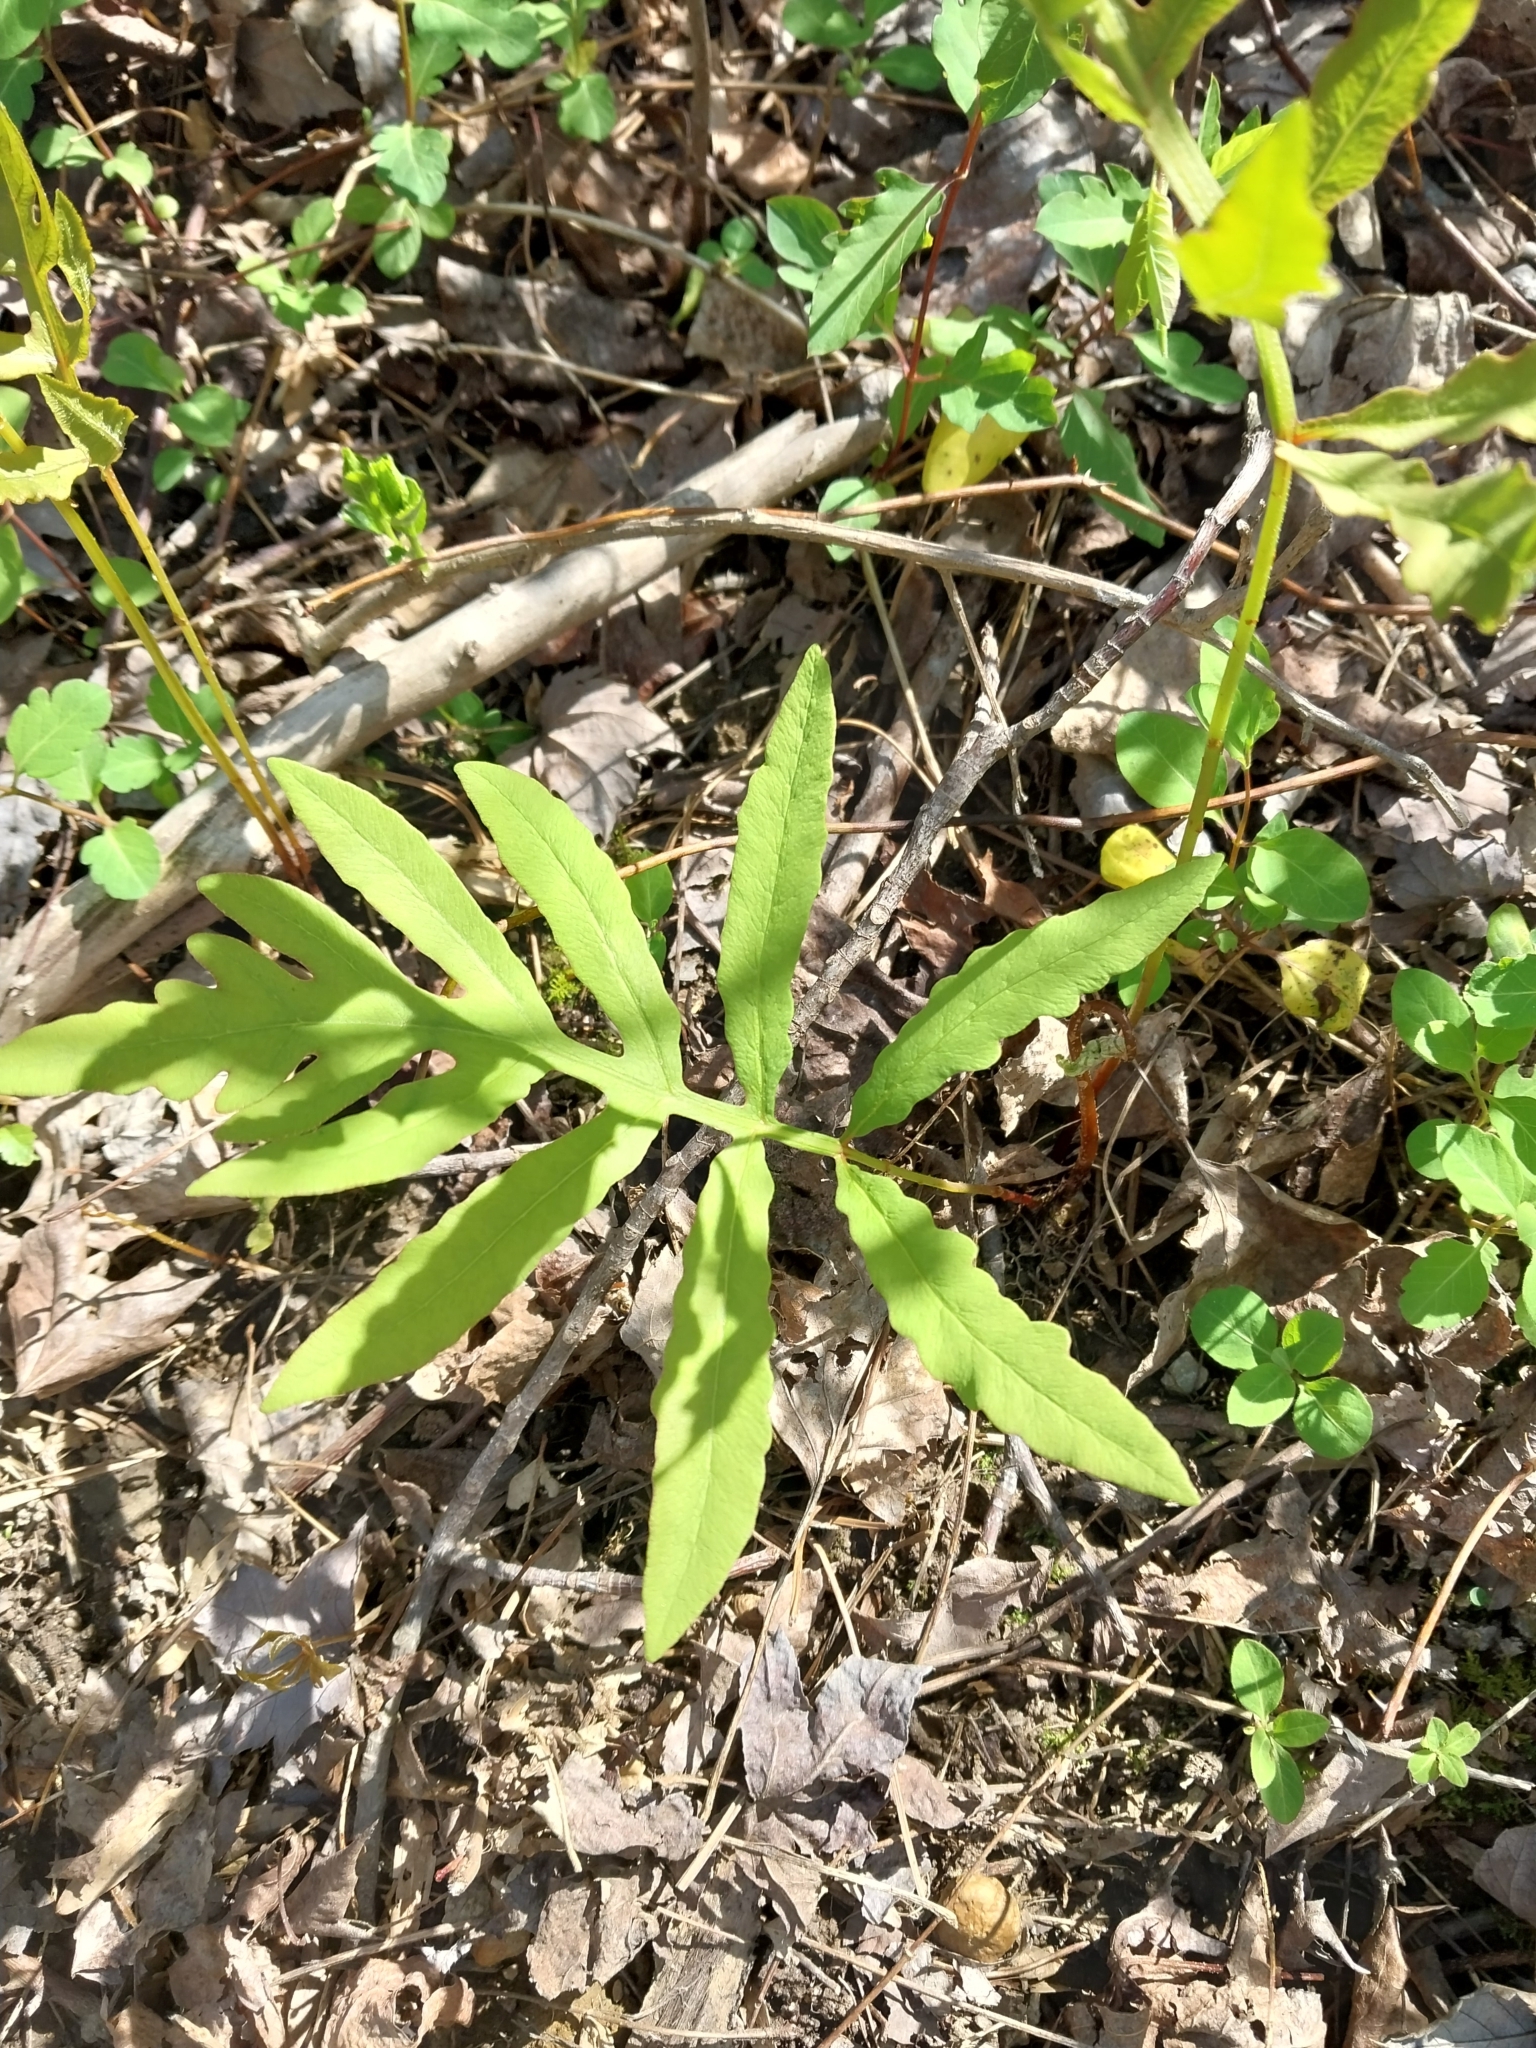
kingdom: Plantae
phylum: Tracheophyta
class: Polypodiopsida
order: Polypodiales
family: Onocleaceae
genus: Onoclea
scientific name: Onoclea sensibilis
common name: Sensitive fern
